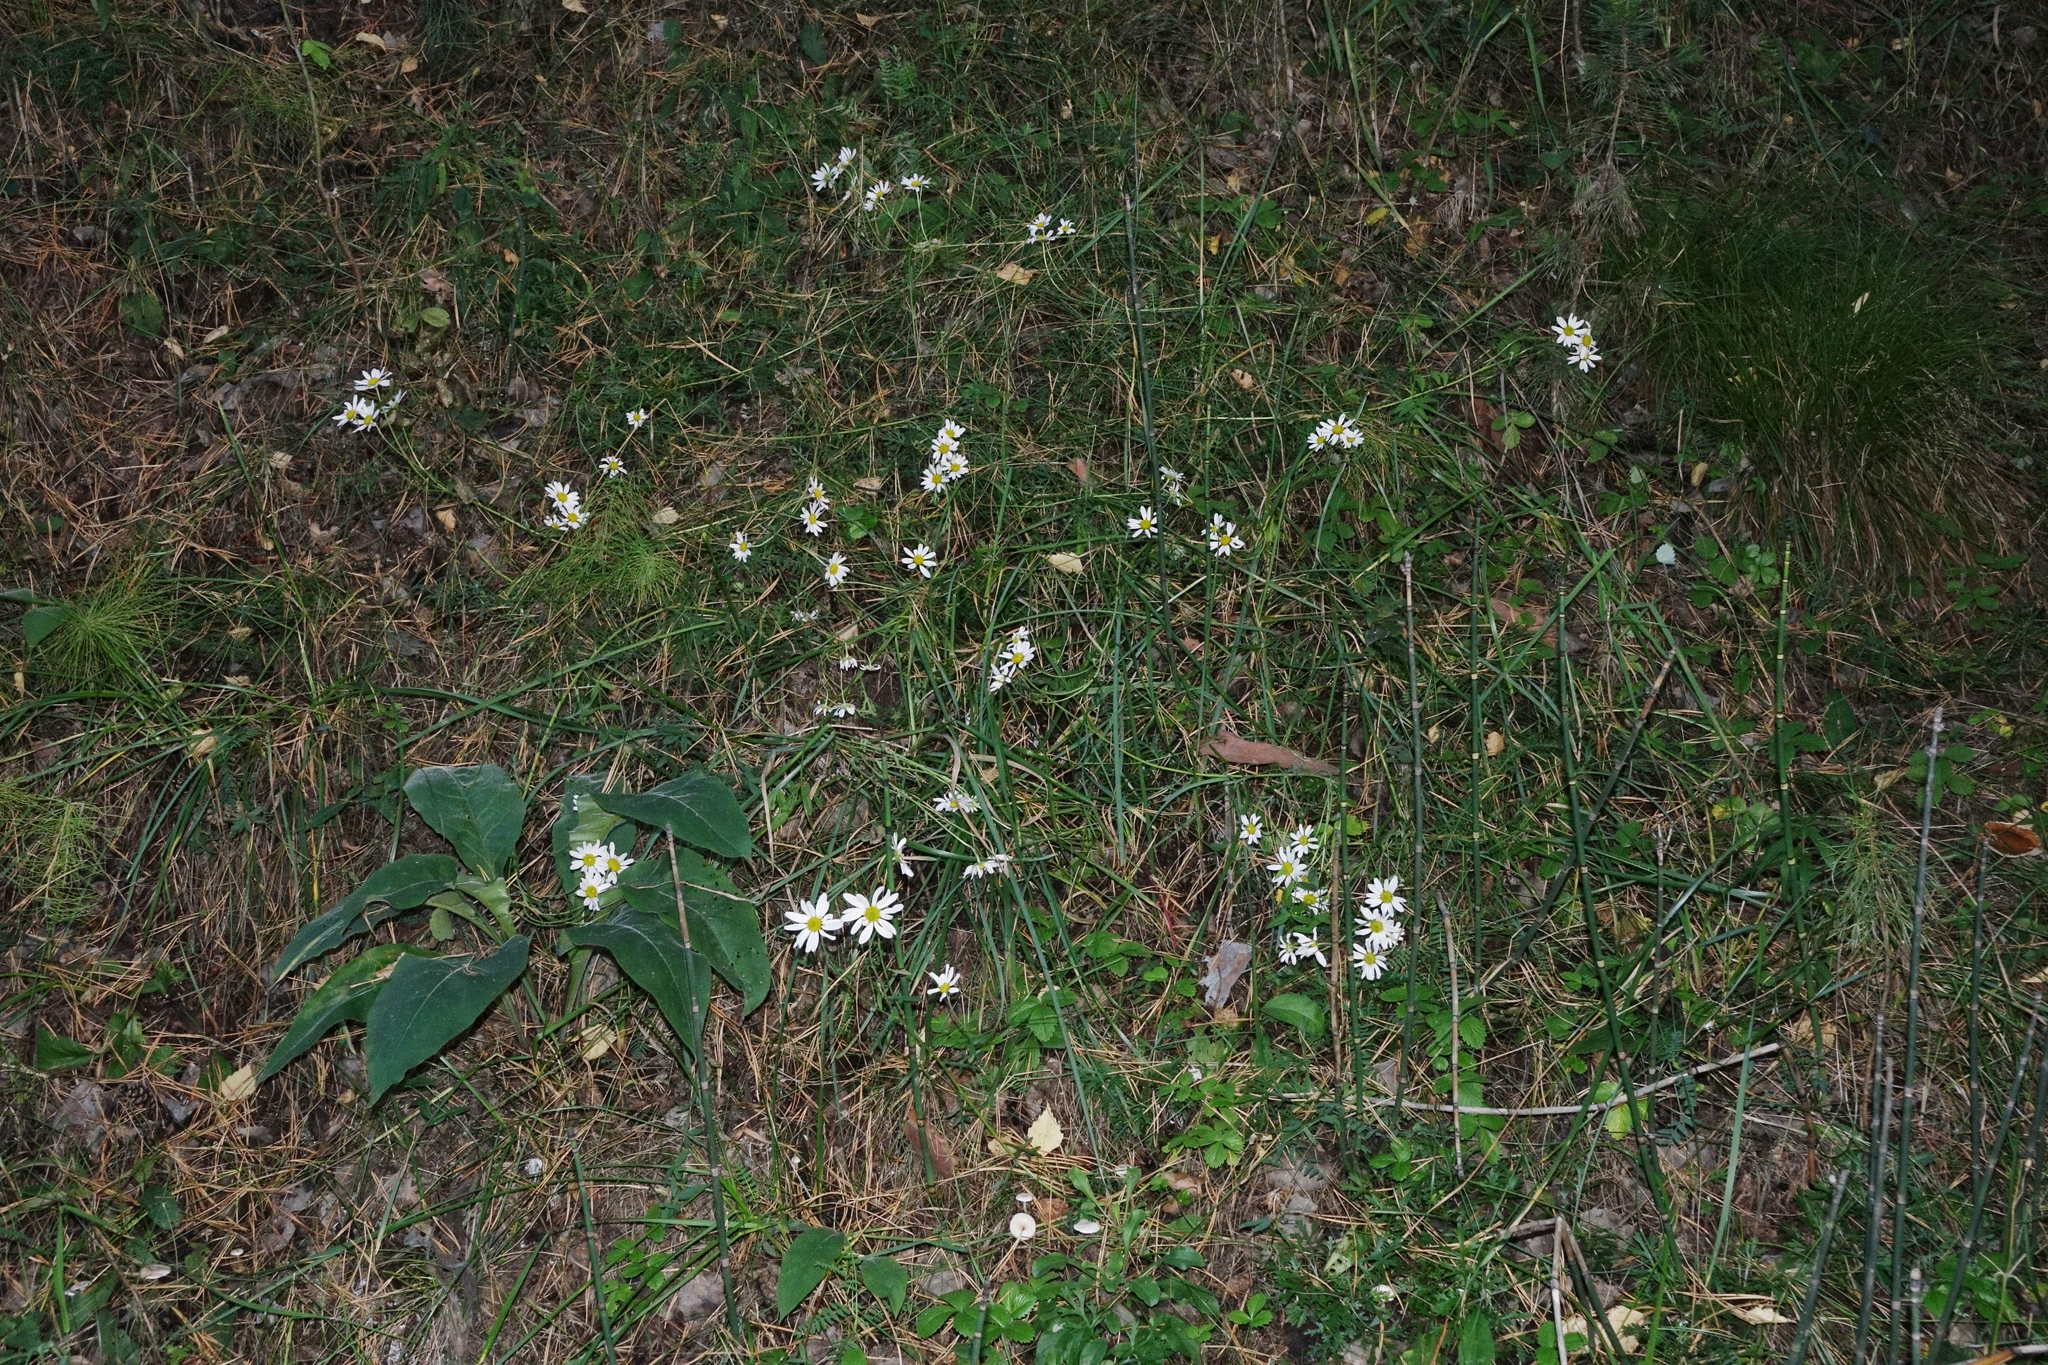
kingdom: Plantae
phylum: Tracheophyta
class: Magnoliopsida
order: Asterales
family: Asteraceae
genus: Chrysanthemum
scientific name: Chrysanthemum zawadzkii
